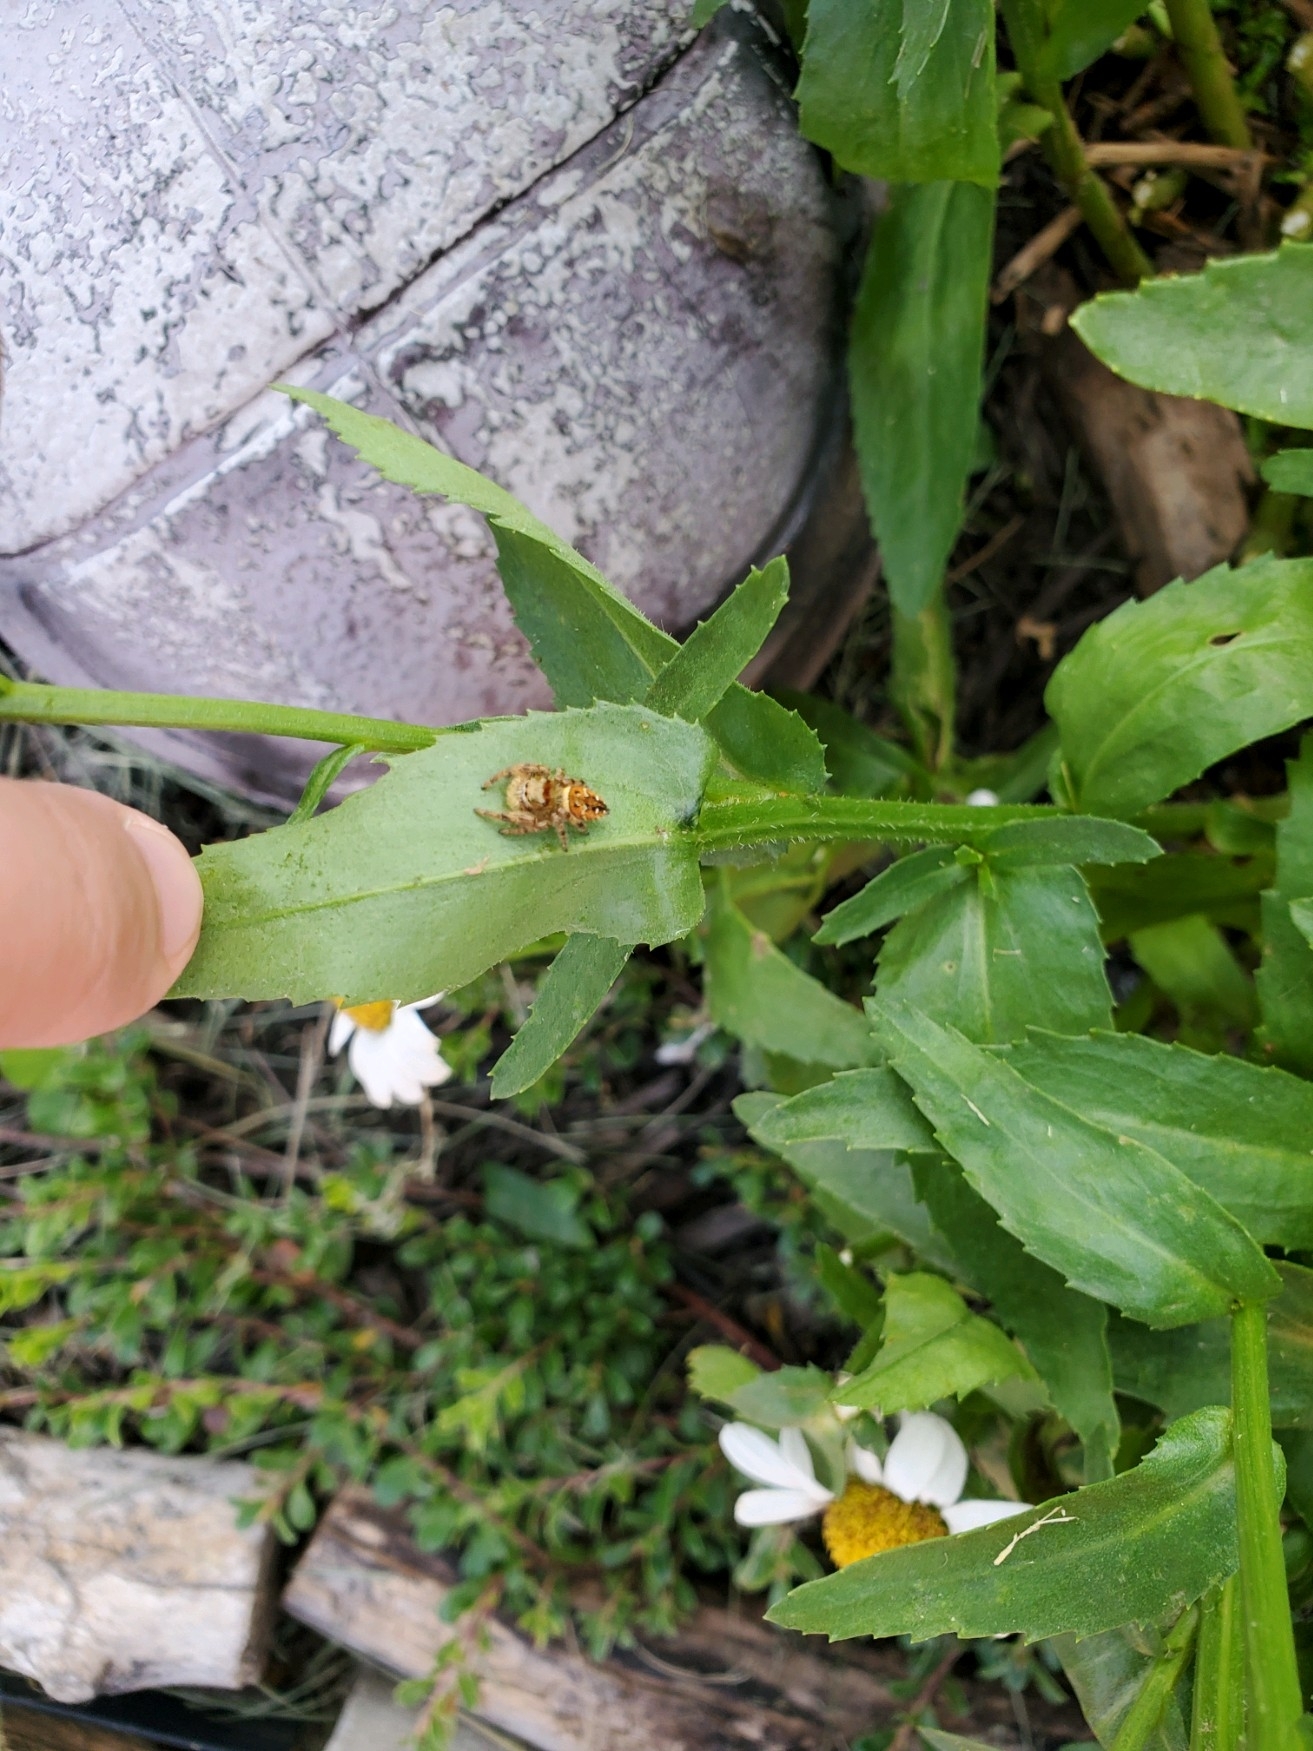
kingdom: Animalia
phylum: Arthropoda
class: Arachnida
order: Araneae
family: Salticidae
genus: Phidippus
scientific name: Phidippus clarus
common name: Brilliant jumping spider
